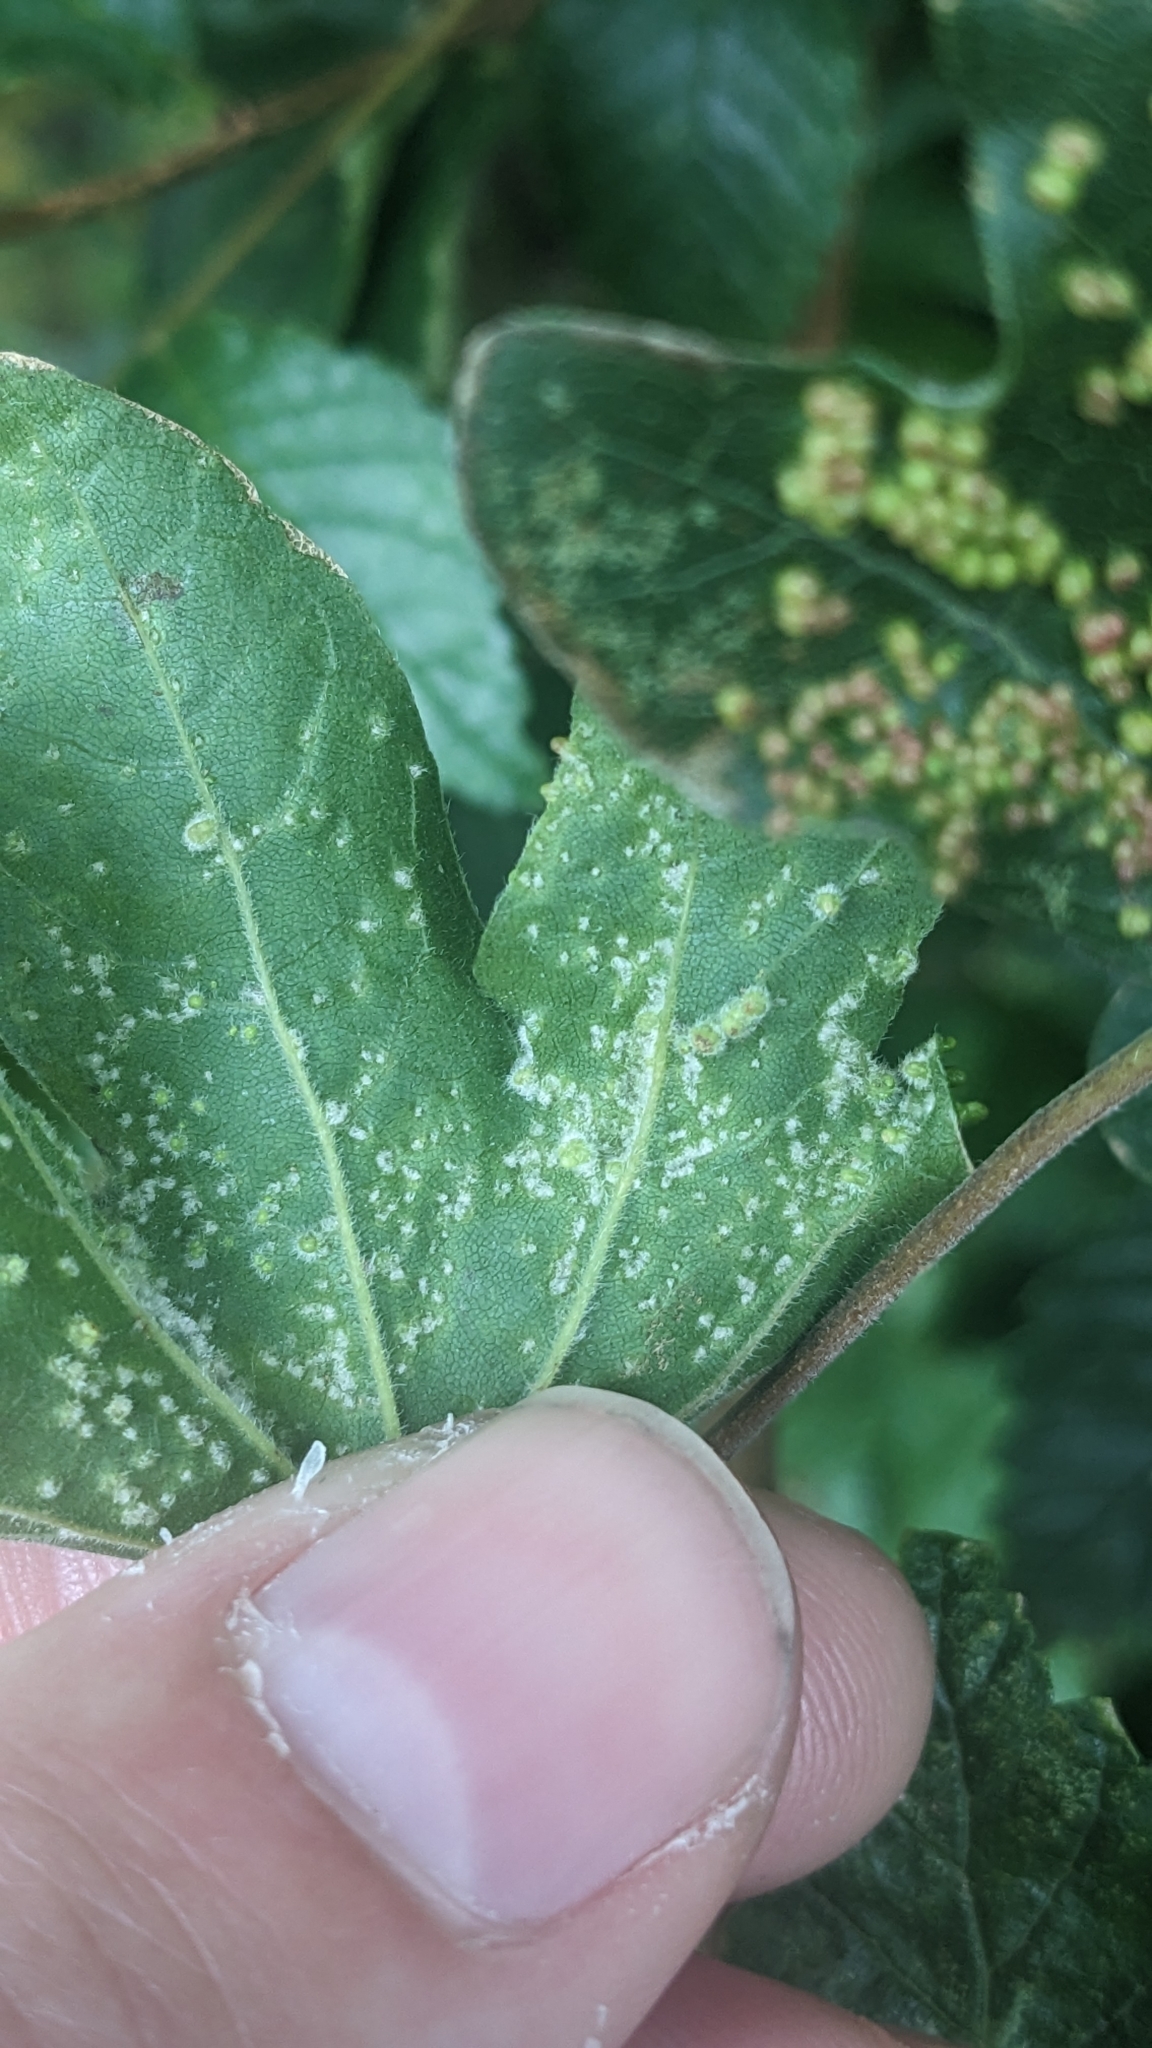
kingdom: Animalia
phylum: Arthropoda
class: Arachnida
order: Trombidiformes
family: Eriophyidae
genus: Aceria
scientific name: Aceria myriadeum
